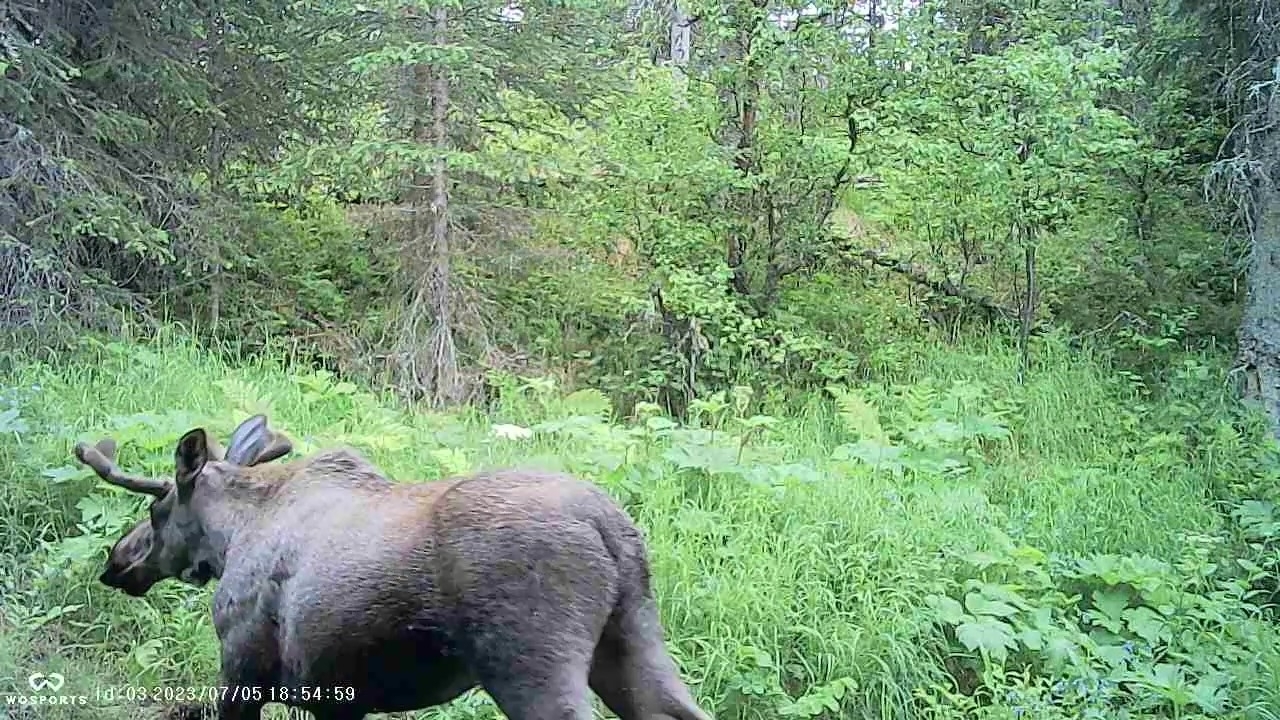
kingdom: Animalia
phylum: Chordata
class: Mammalia
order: Artiodactyla
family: Cervidae
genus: Alces
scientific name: Alces alces
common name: Moose
